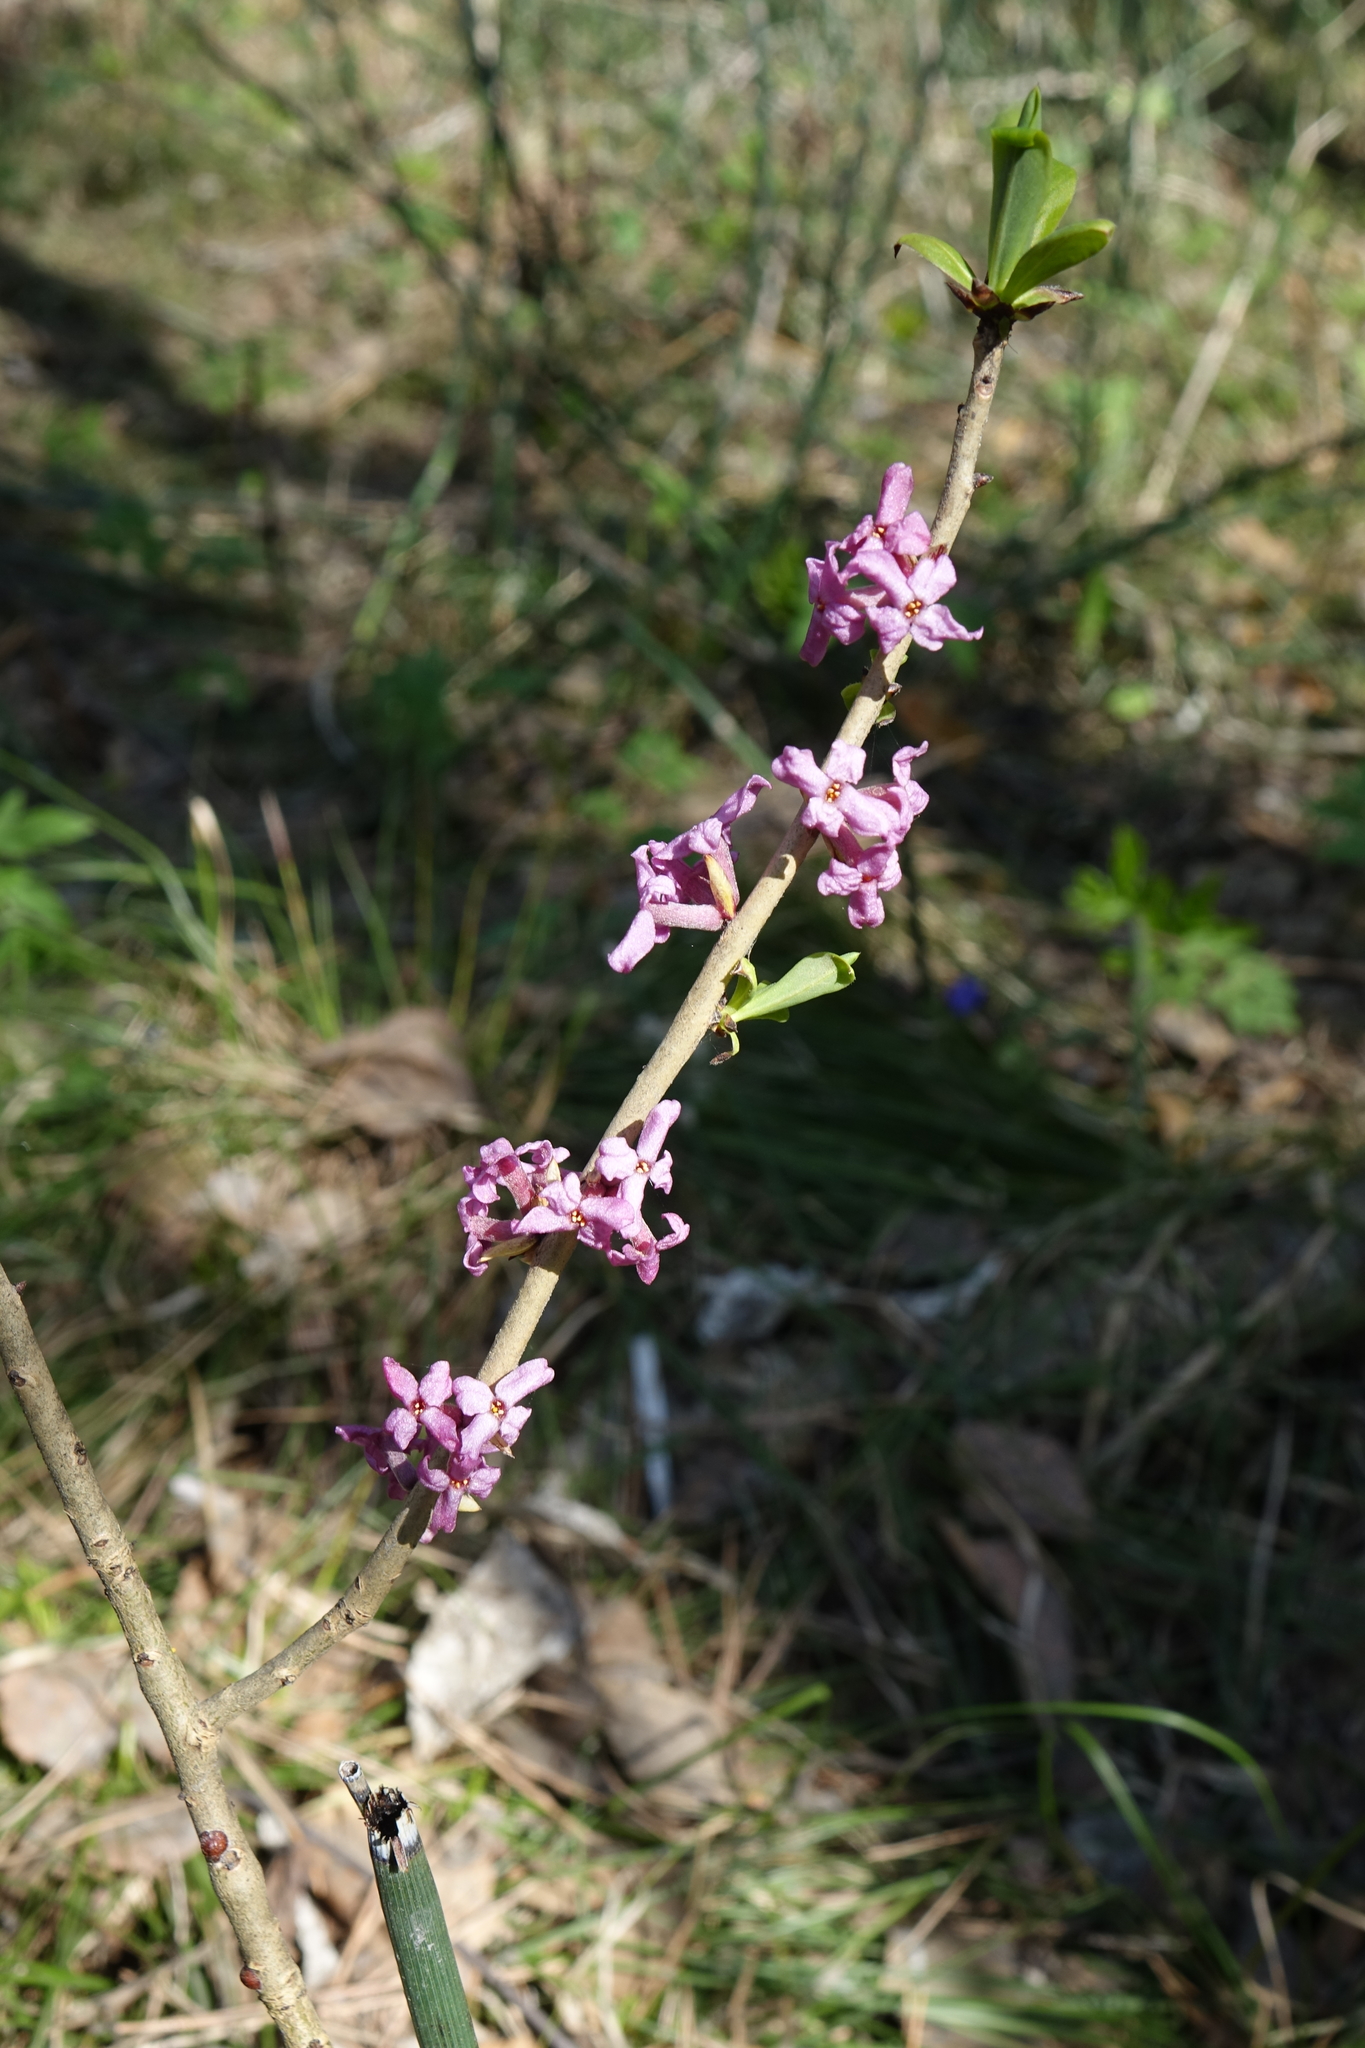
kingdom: Plantae
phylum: Tracheophyta
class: Magnoliopsida
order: Malvales
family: Thymelaeaceae
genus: Daphne
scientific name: Daphne mezereum
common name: Mezereon
